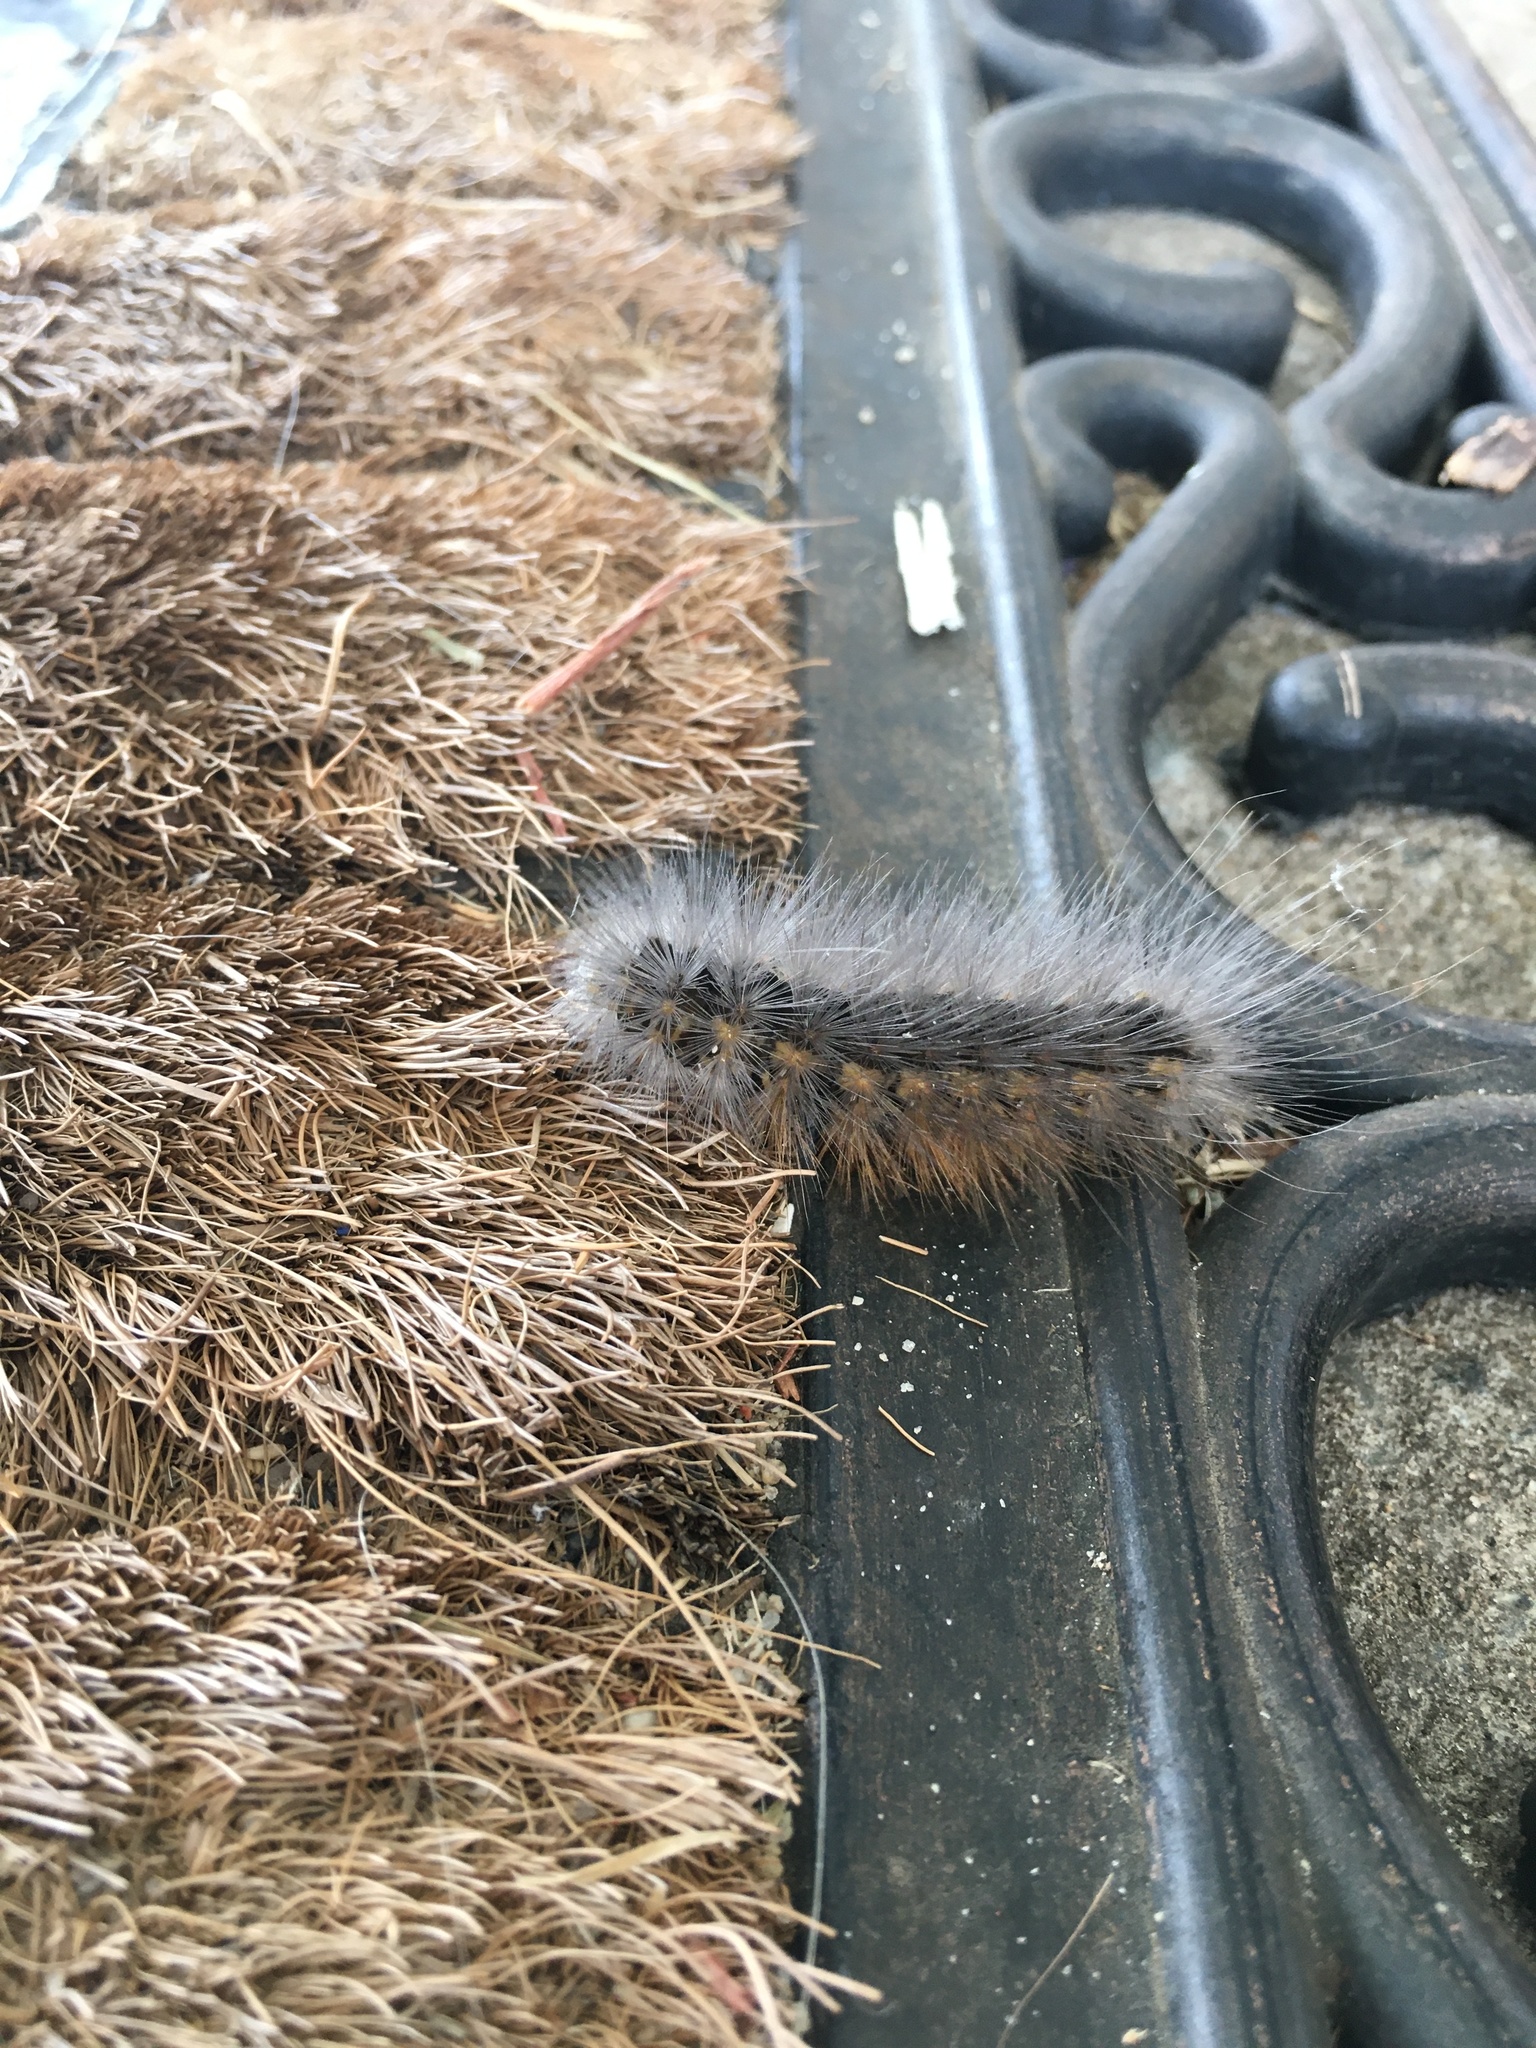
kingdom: Animalia
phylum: Arthropoda
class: Insecta
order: Lepidoptera
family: Erebidae
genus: Estigmene
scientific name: Estigmene acrea
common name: Salt marsh moth
